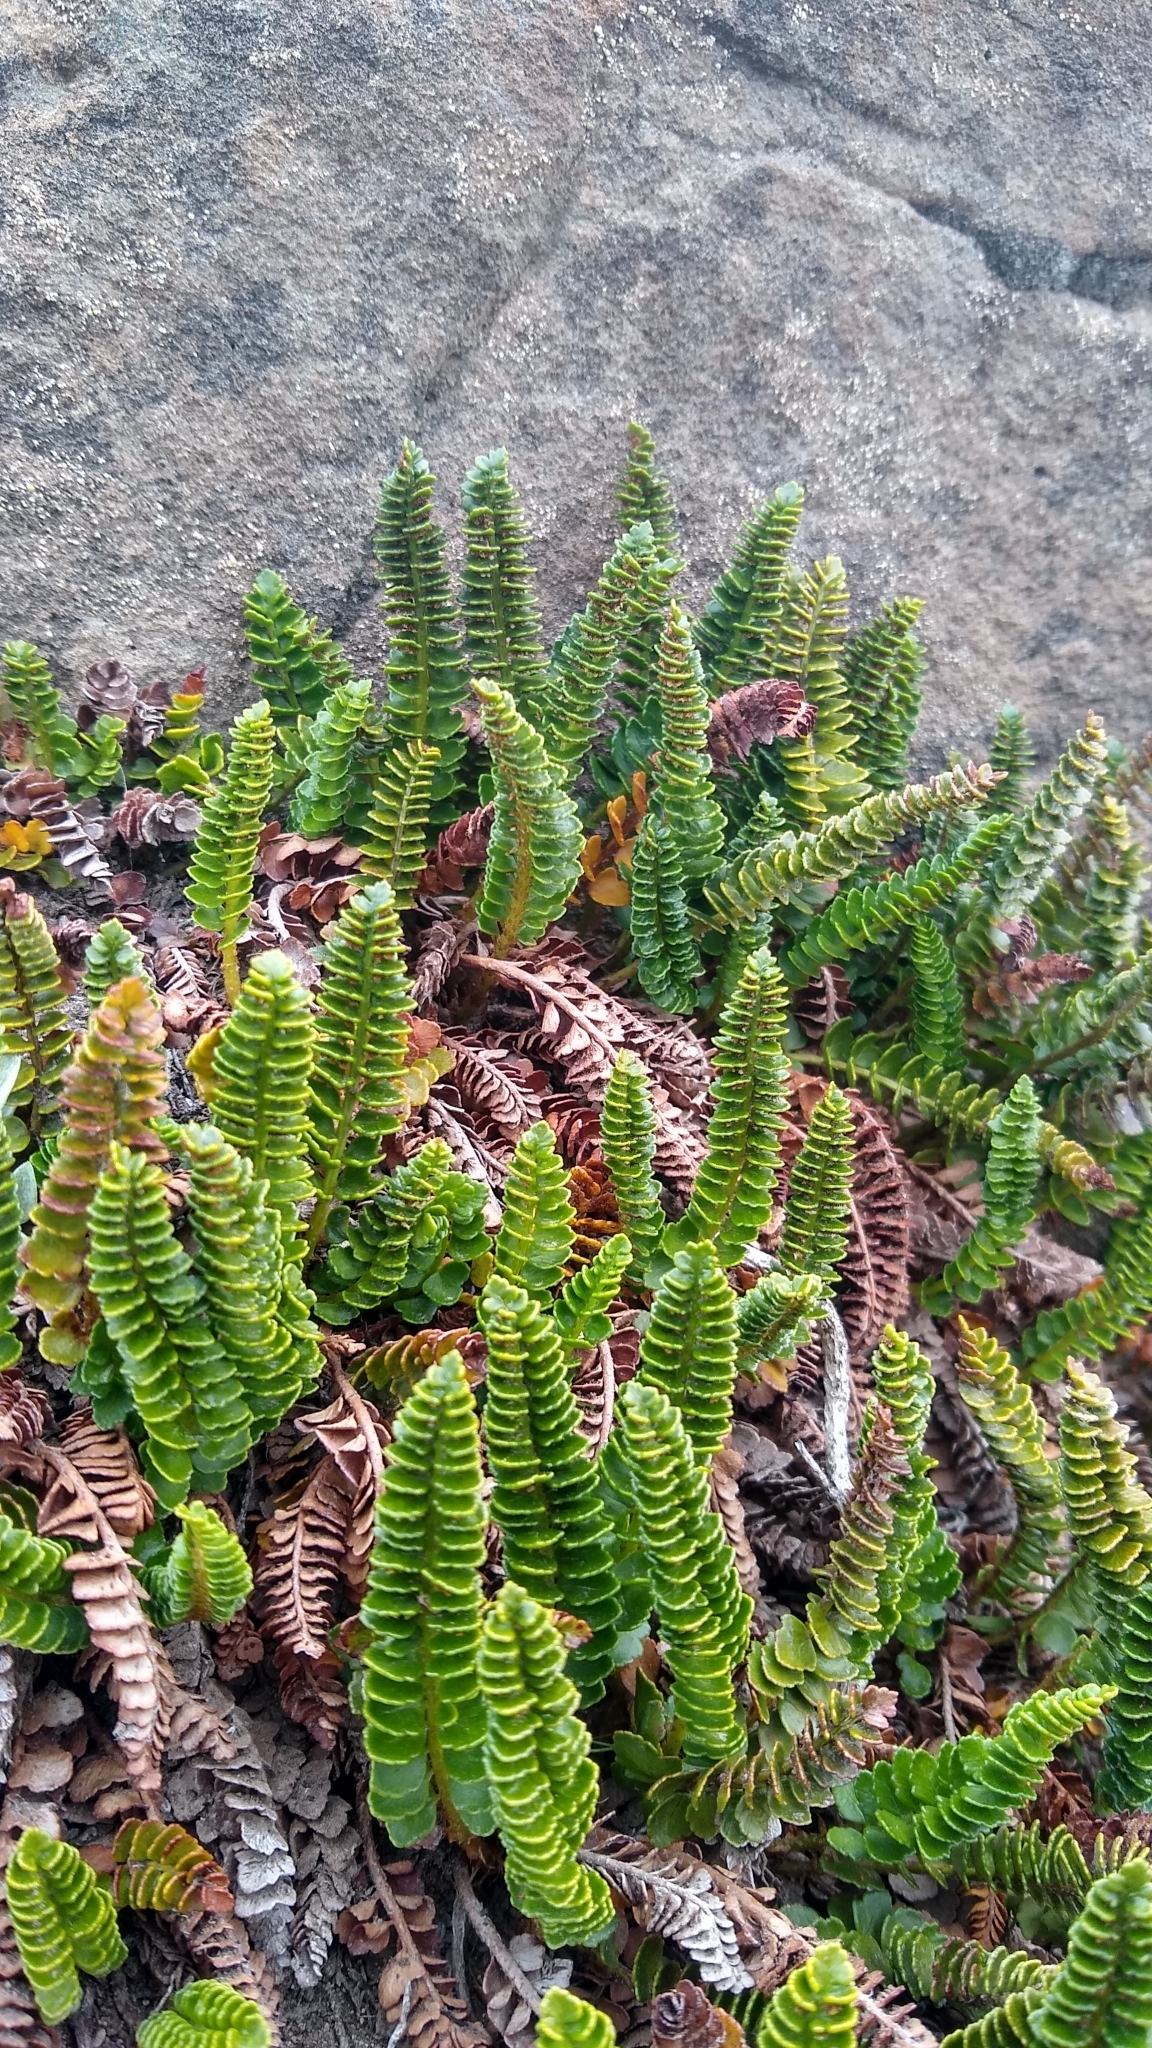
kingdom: Plantae
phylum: Tracheophyta
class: Polypodiopsida
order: Polypodiales
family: Dryopteridaceae
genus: Polystichum
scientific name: Polystichum andinum
